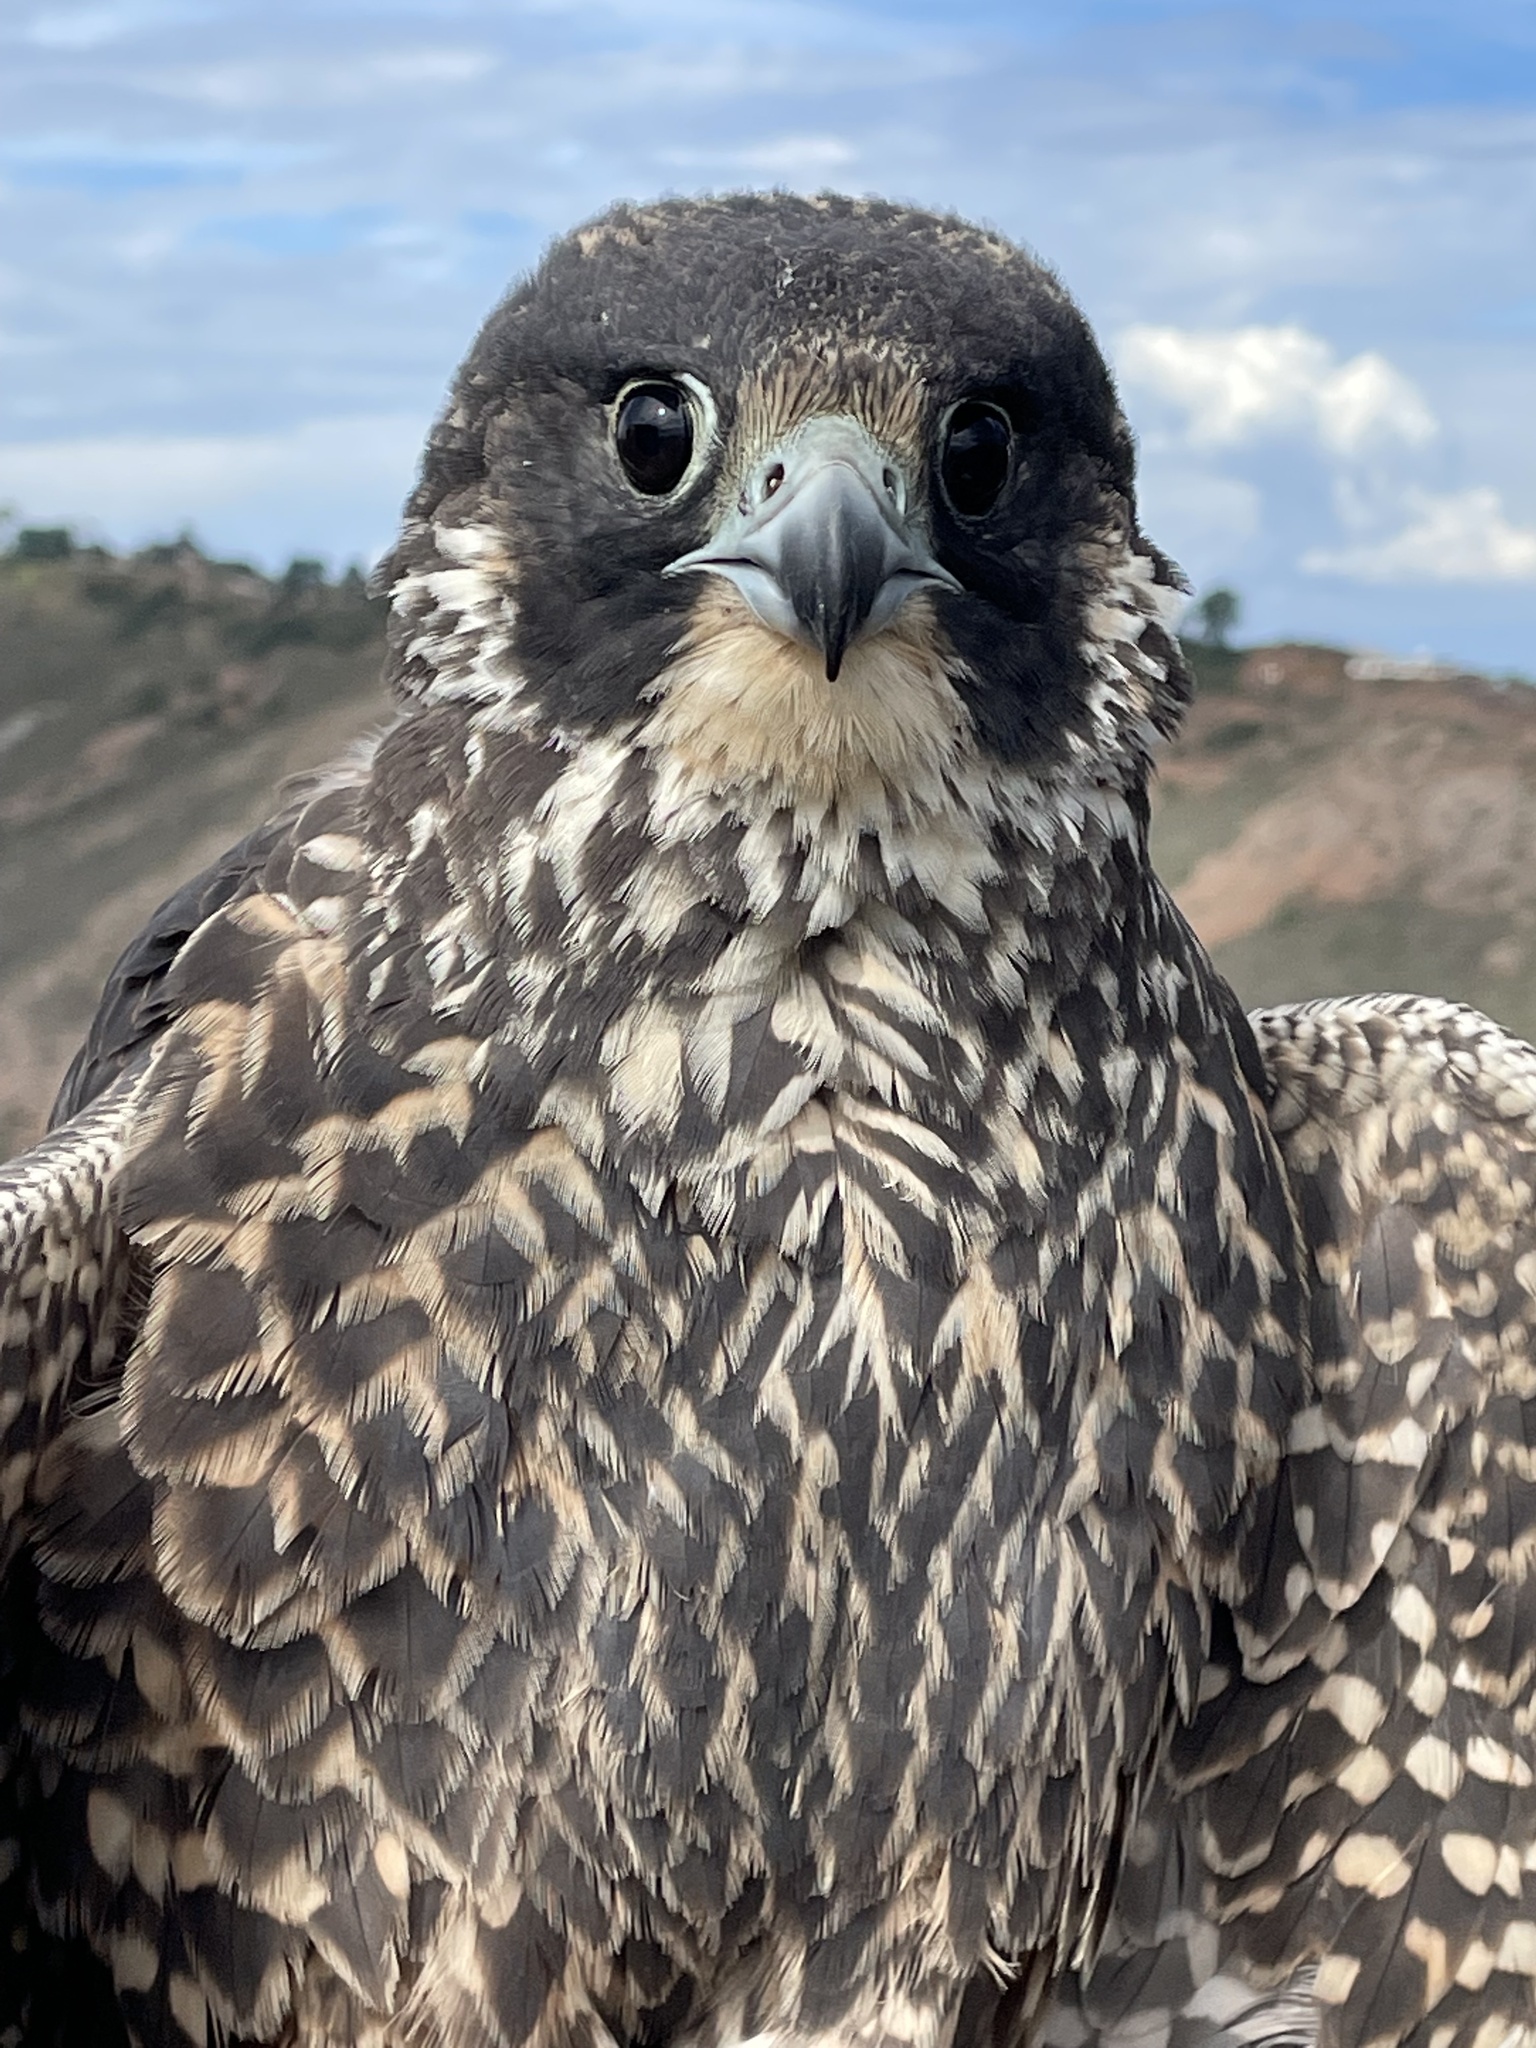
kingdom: Animalia
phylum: Chordata
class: Aves
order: Falconiformes
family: Falconidae
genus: Falco
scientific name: Falco peregrinus
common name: Peregrine falcon
